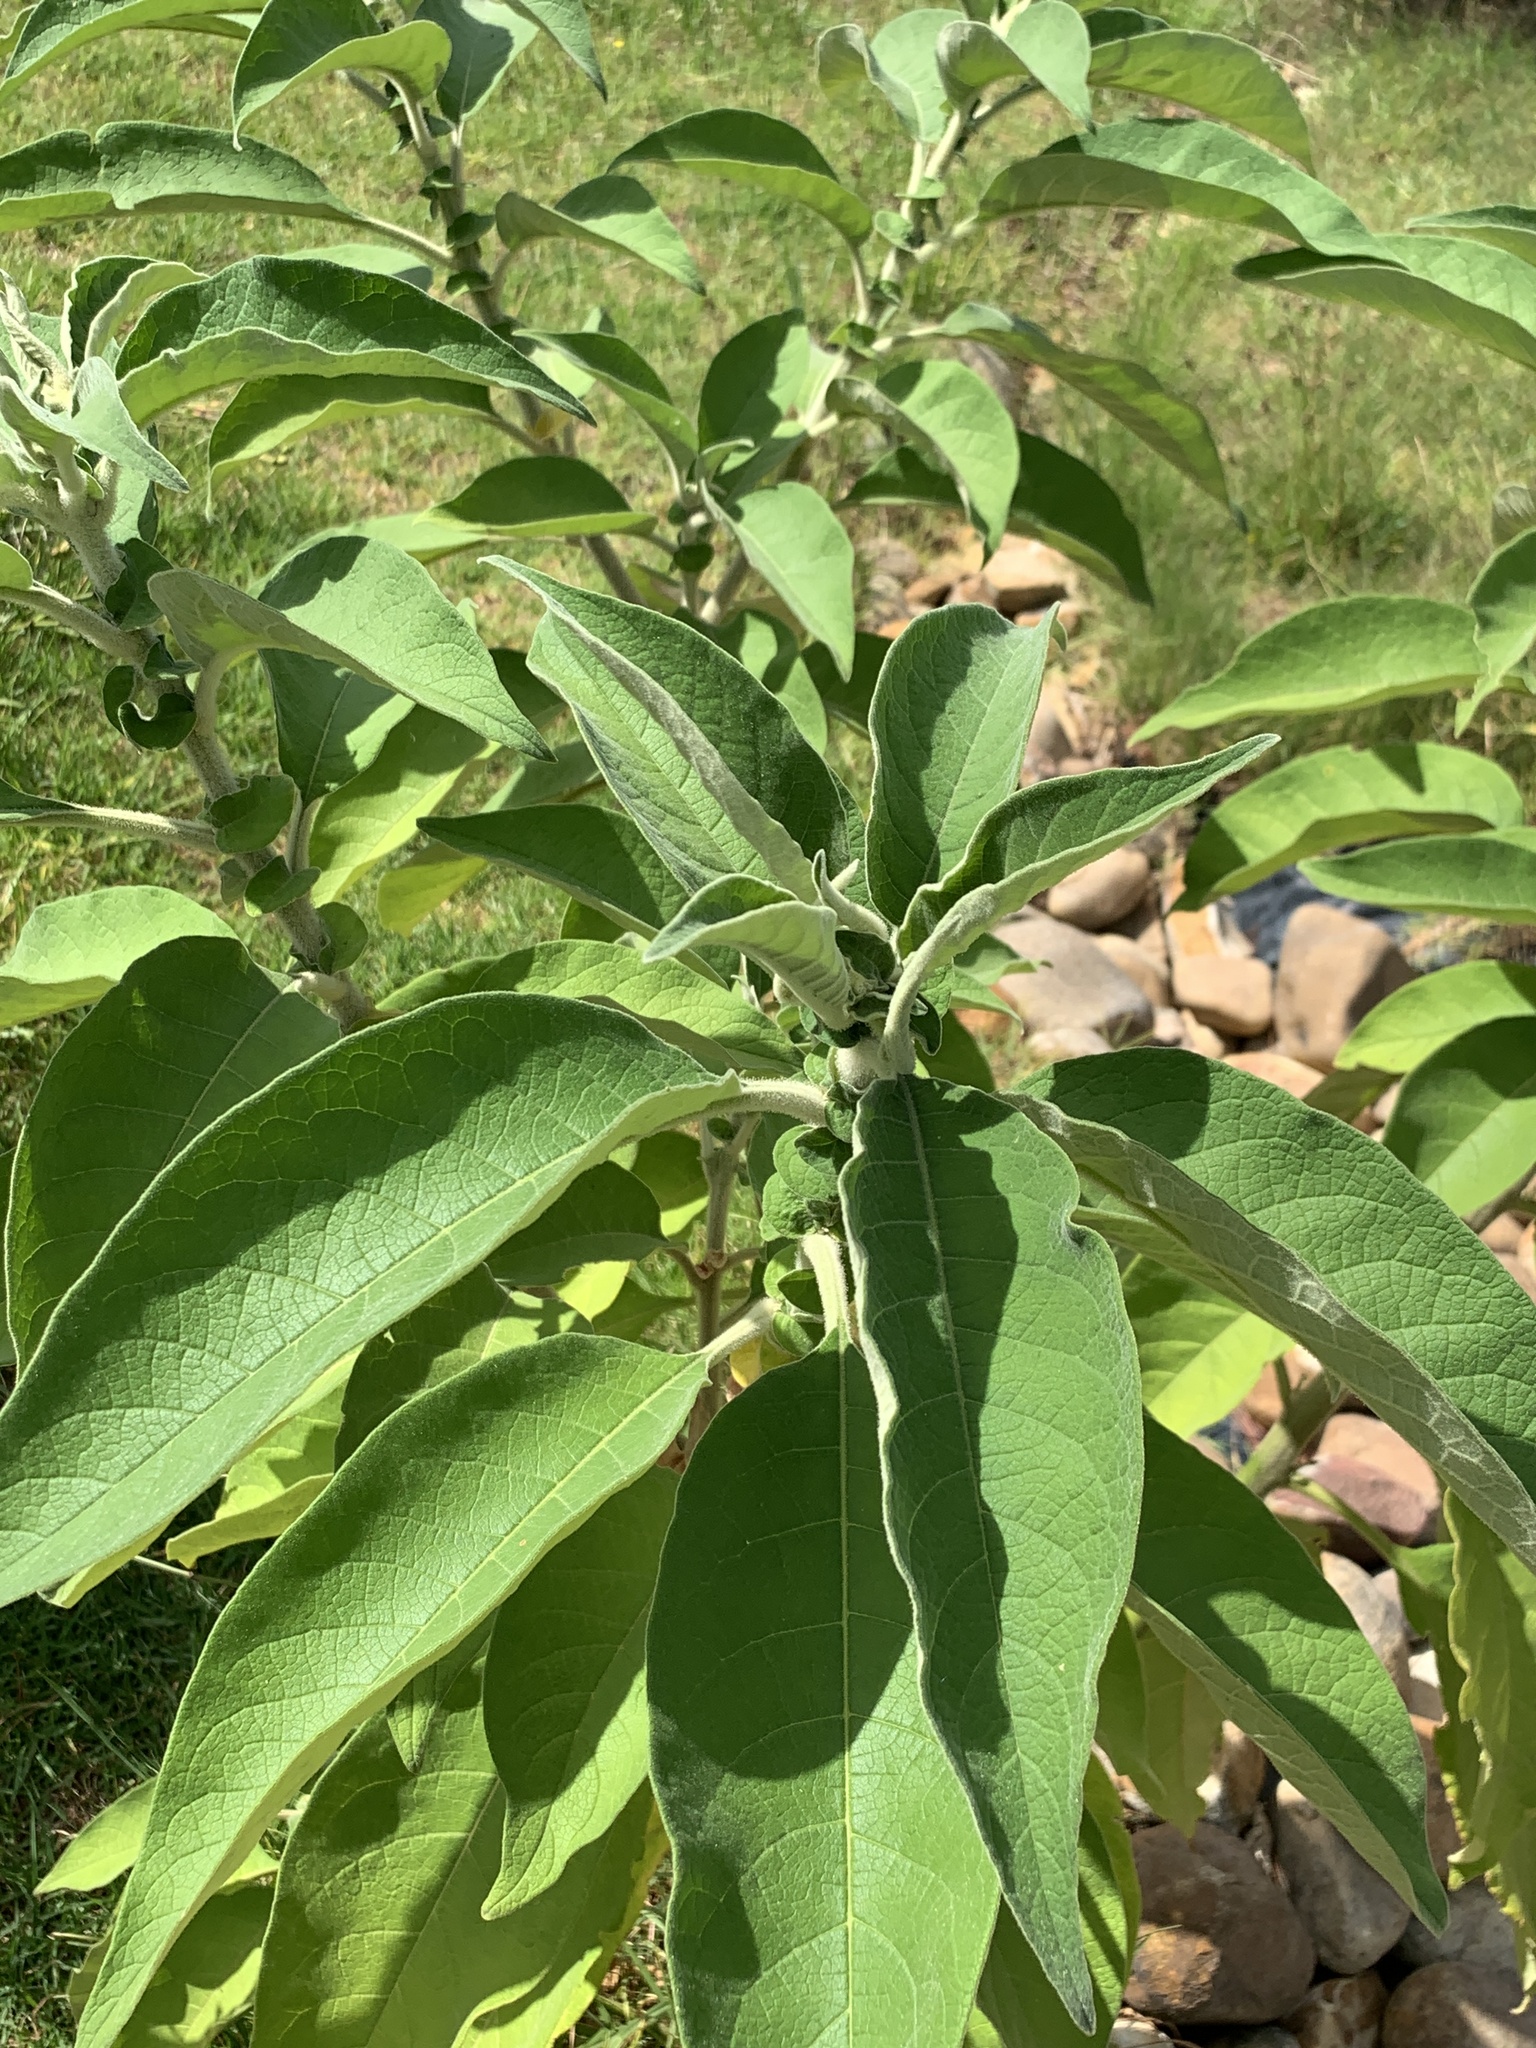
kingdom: Plantae
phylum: Tracheophyta
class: Magnoliopsida
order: Solanales
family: Solanaceae
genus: Solanum
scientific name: Solanum mauritianum
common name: Earleaf nightshade
